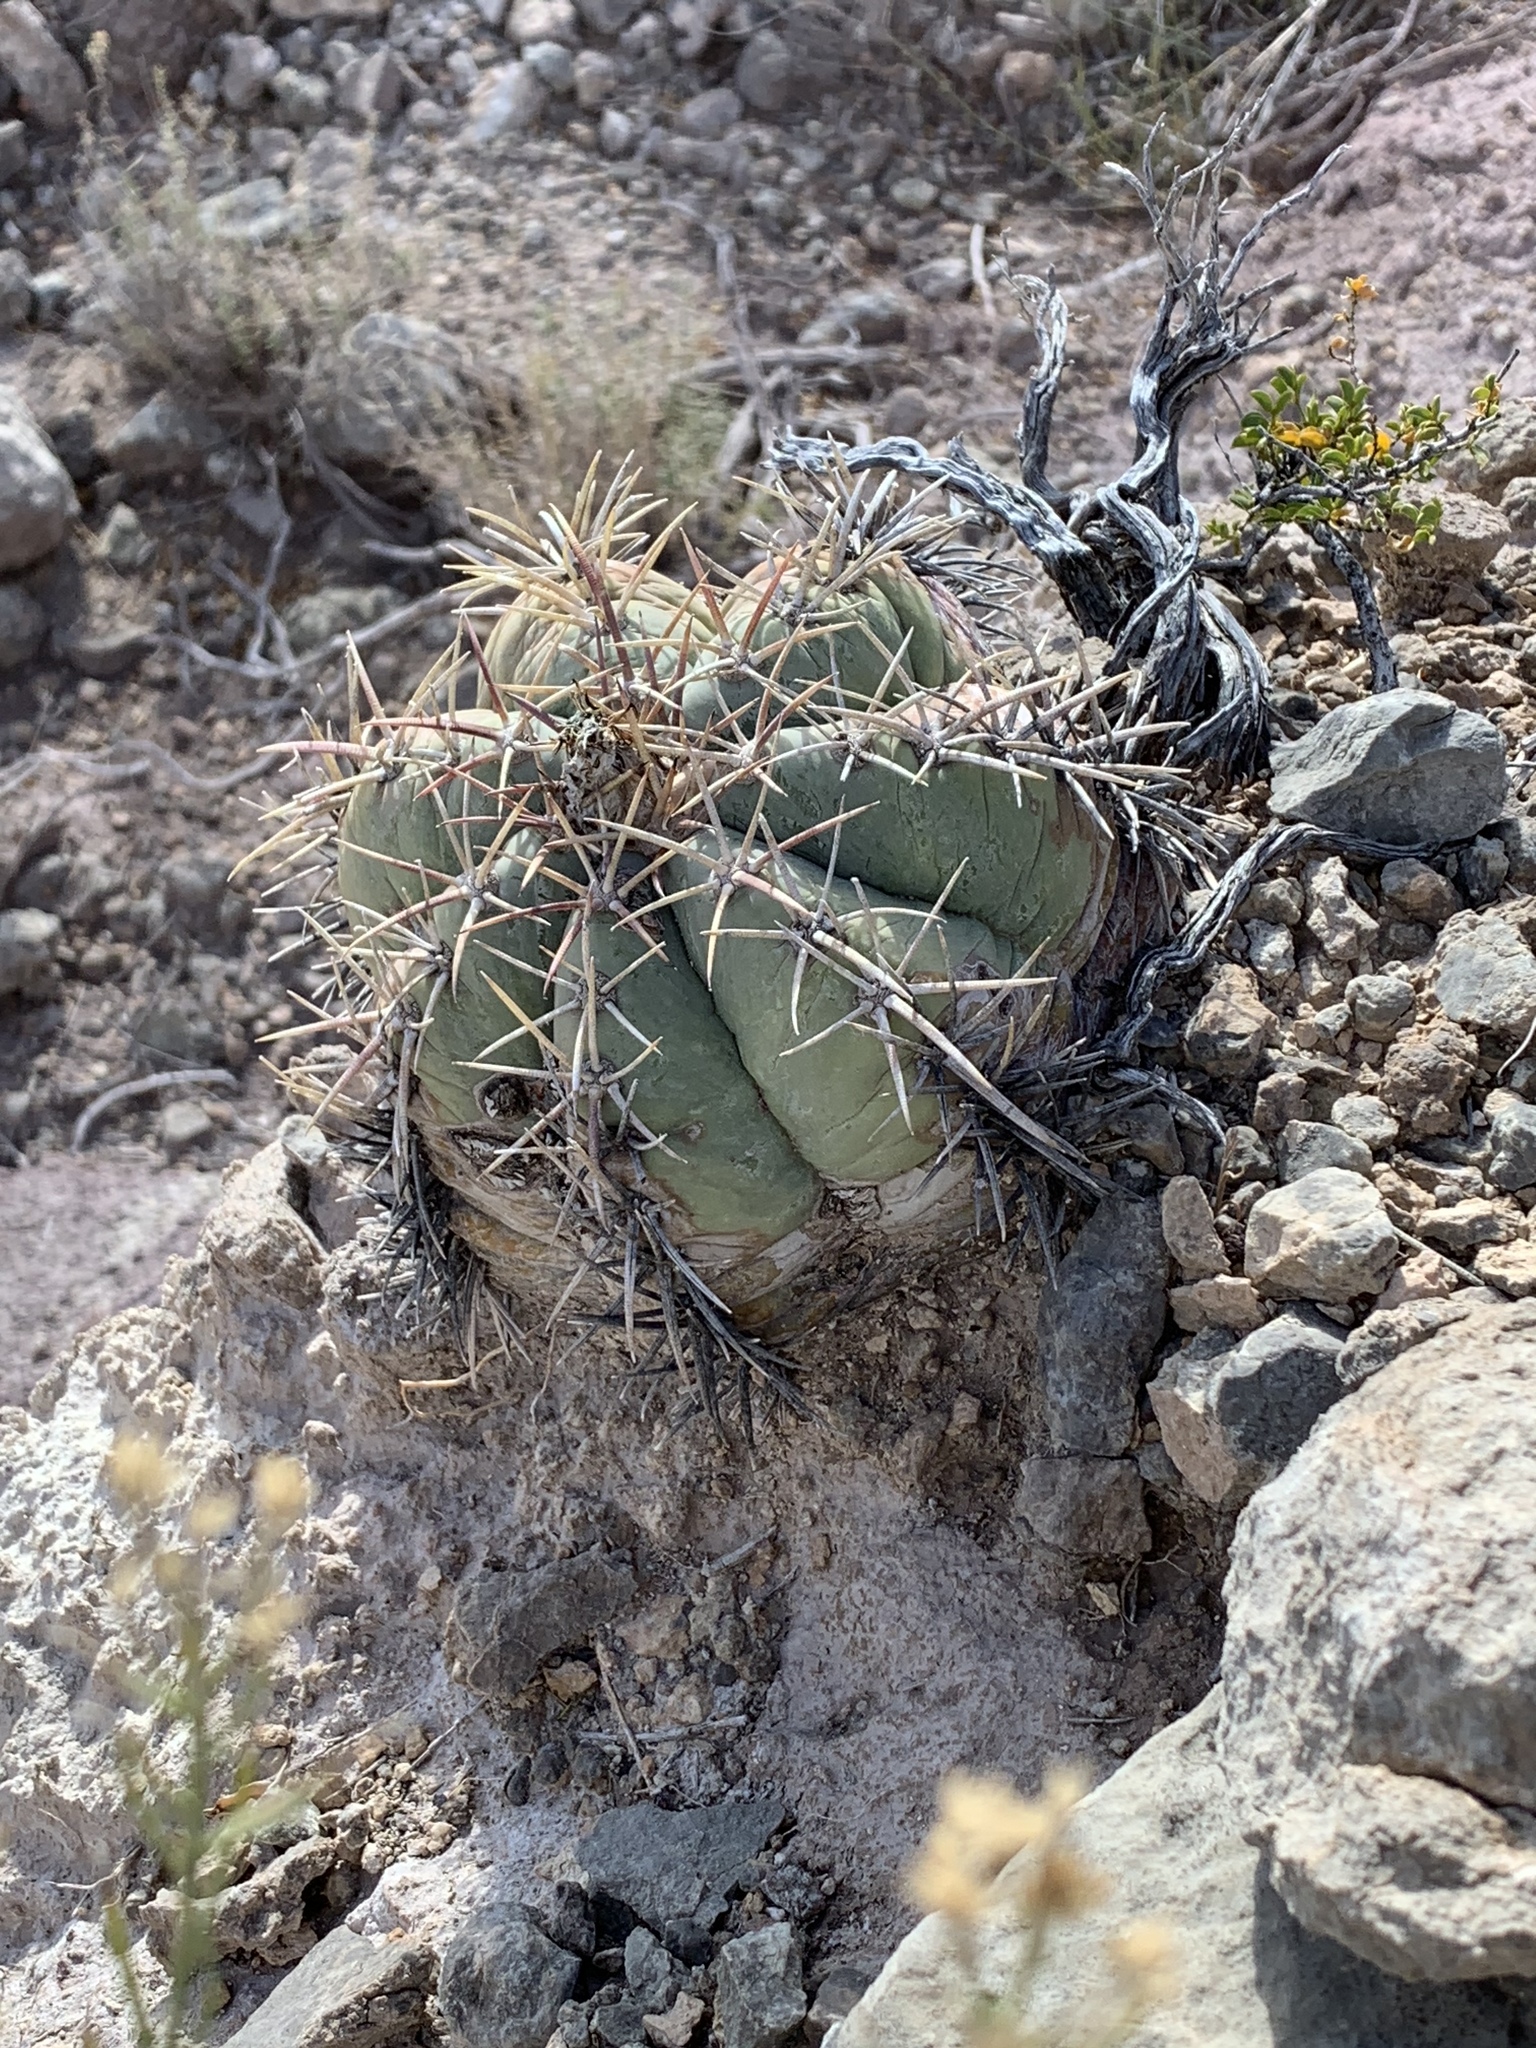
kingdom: Plantae
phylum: Tracheophyta
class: Magnoliopsida
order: Caryophyllales
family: Cactaceae
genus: Echinocactus
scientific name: Echinocactus horizonthalonius
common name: Devilshead
